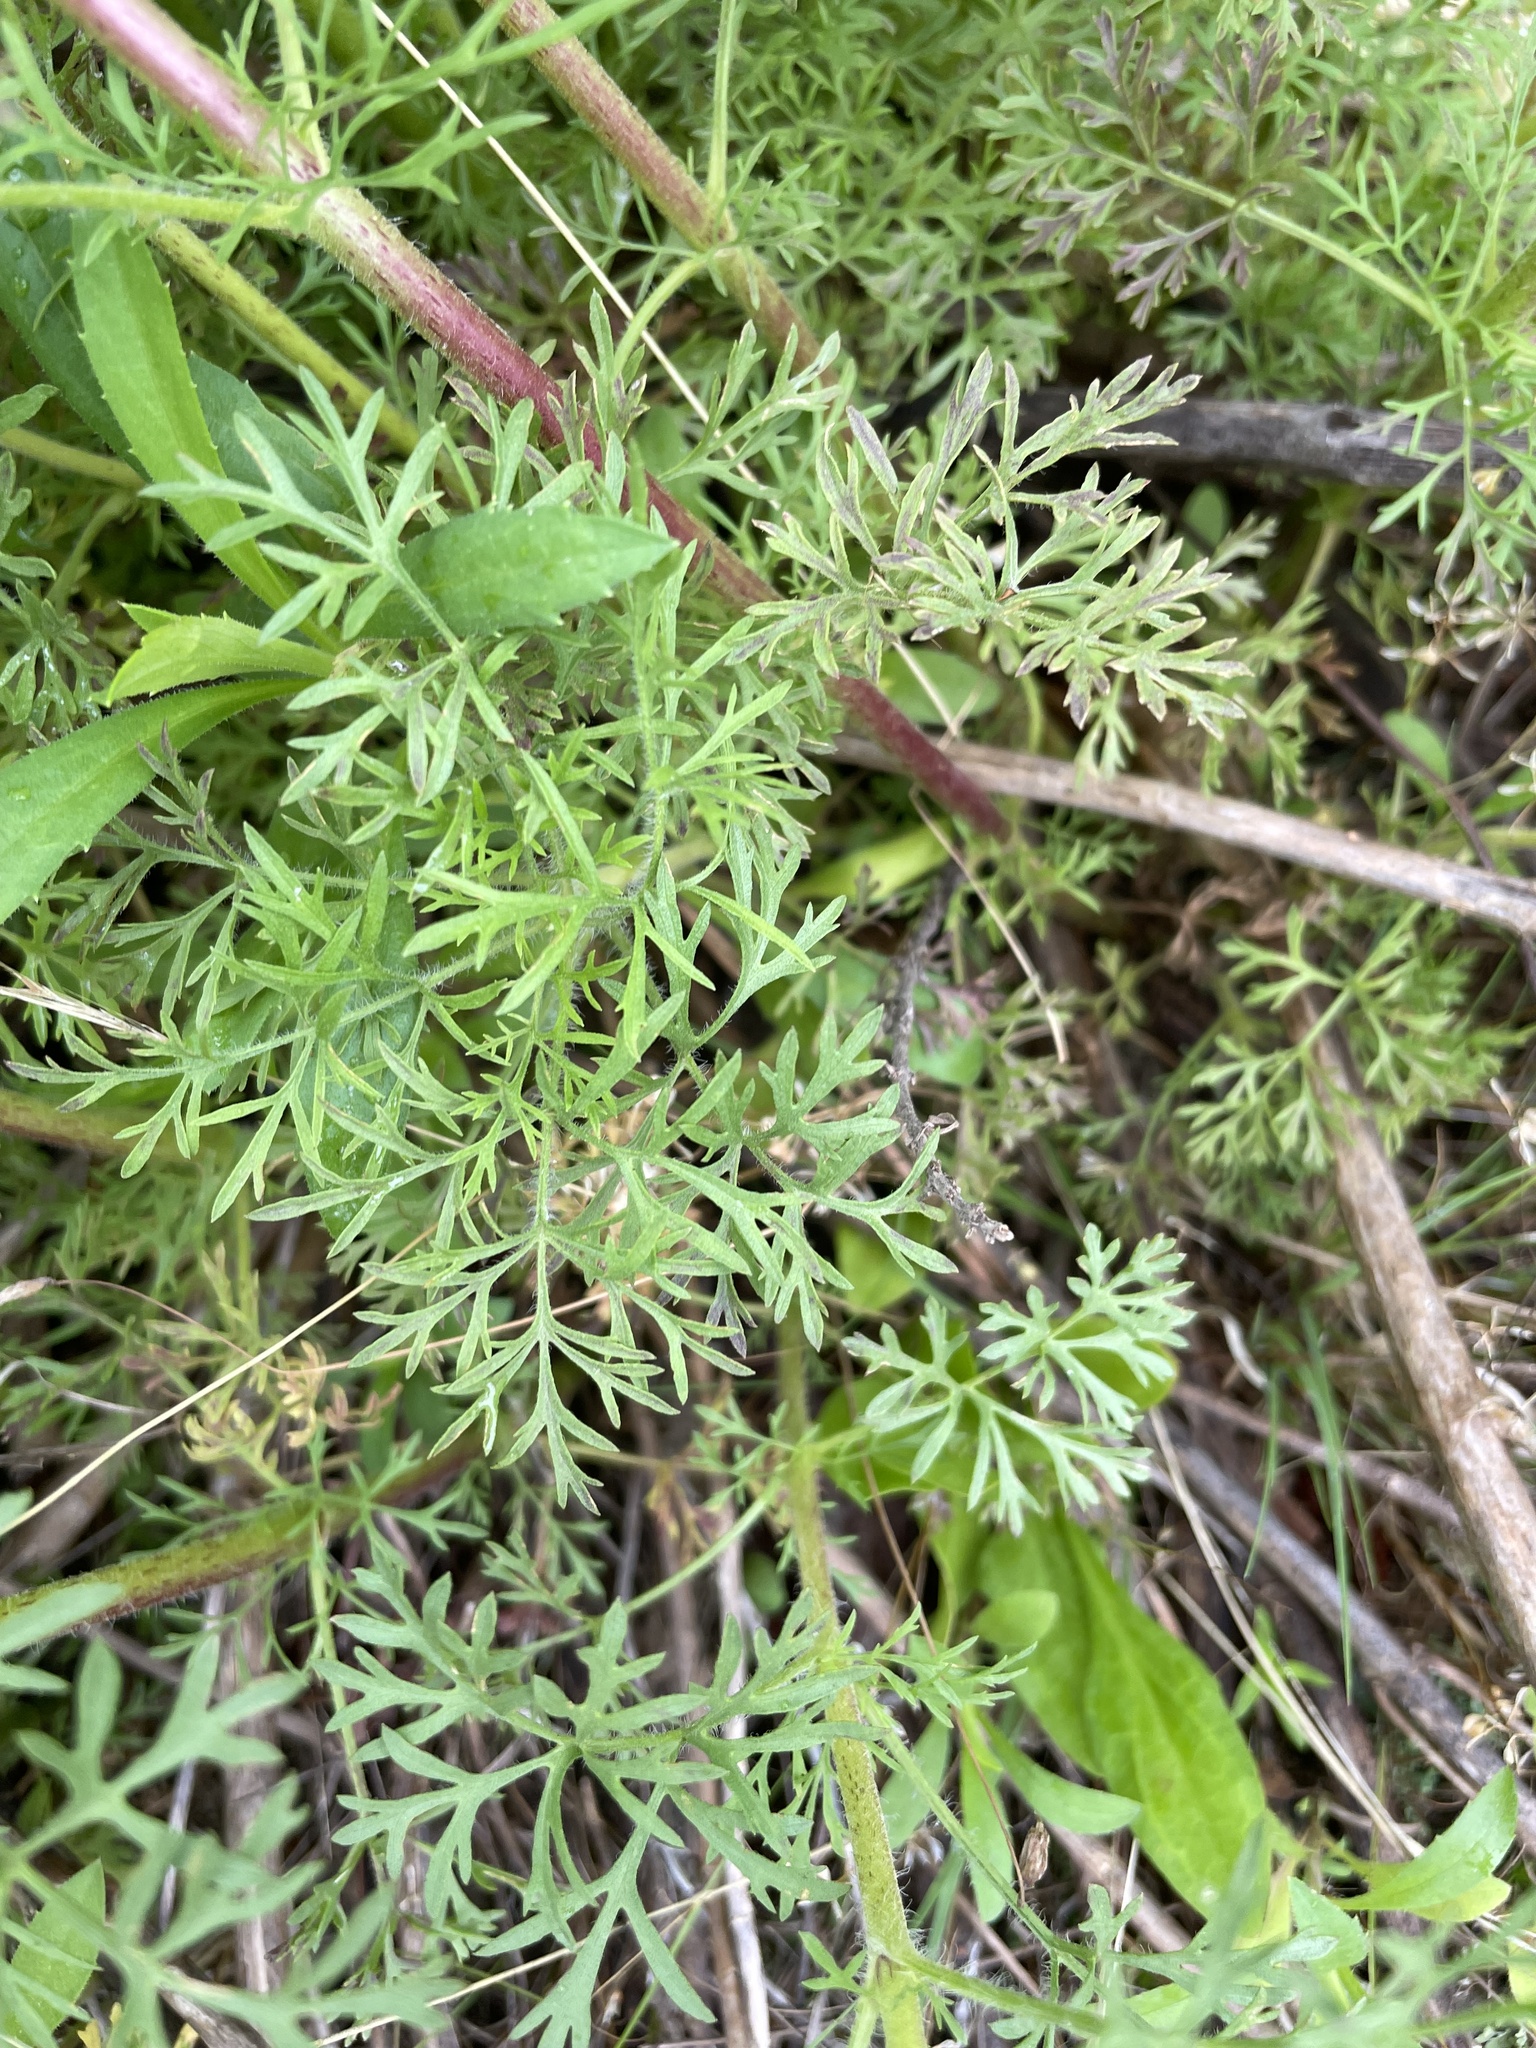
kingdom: Plantae
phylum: Tracheophyta
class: Magnoliopsida
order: Asterales
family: Asteraceae
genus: Eupatorium
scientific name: Eupatorium compositifolium
